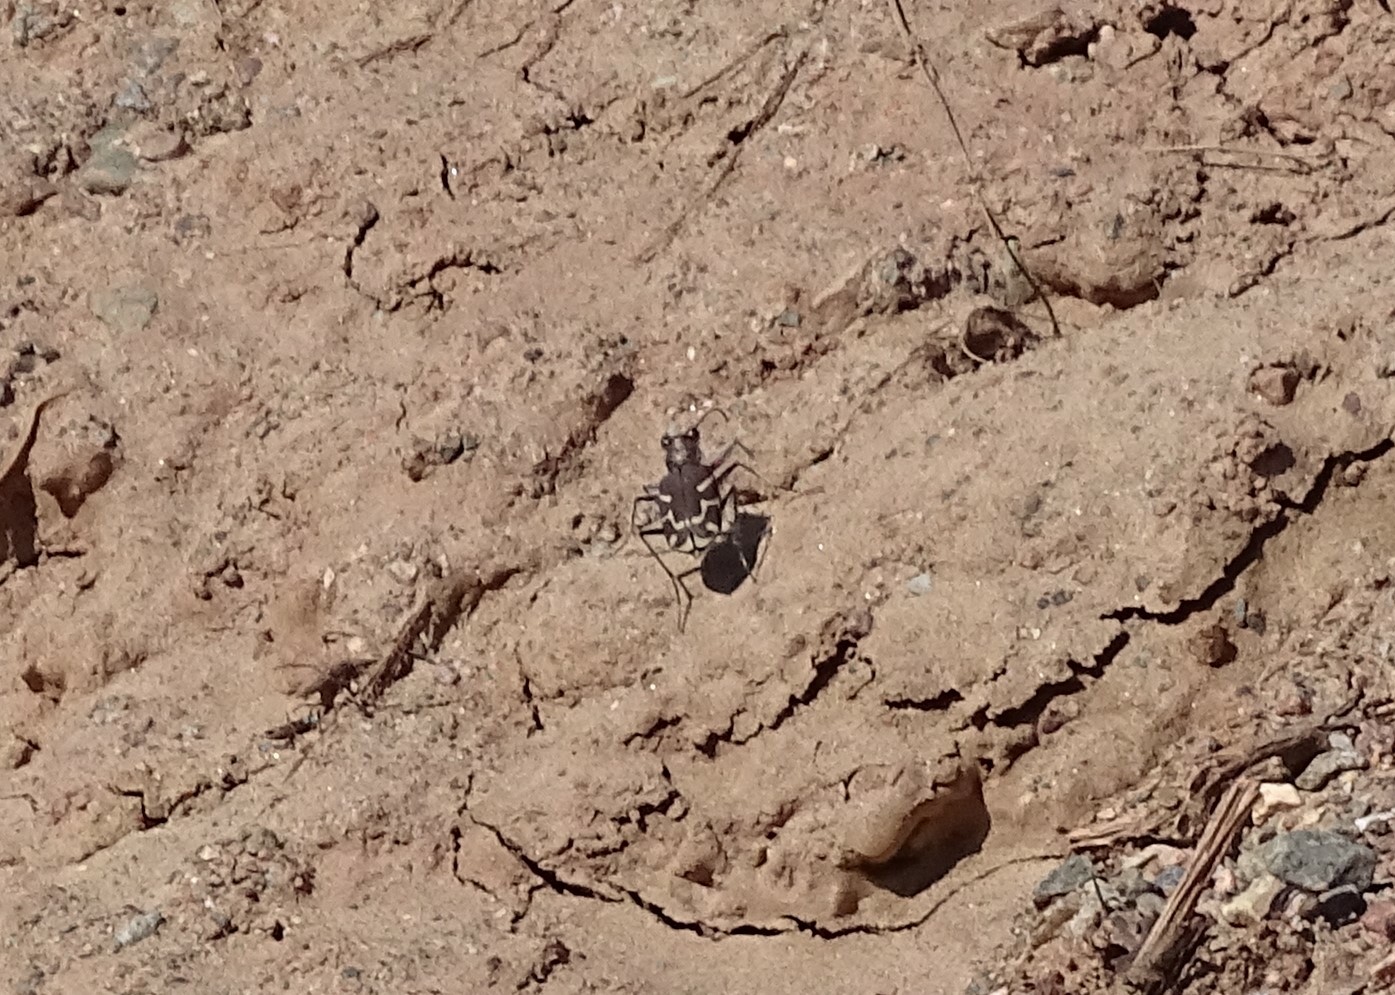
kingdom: Animalia
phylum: Arthropoda
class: Insecta
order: Coleoptera
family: Carabidae
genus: Cicindela
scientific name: Cicindela tranquebarica
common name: Oblique-lined tiger beetle
